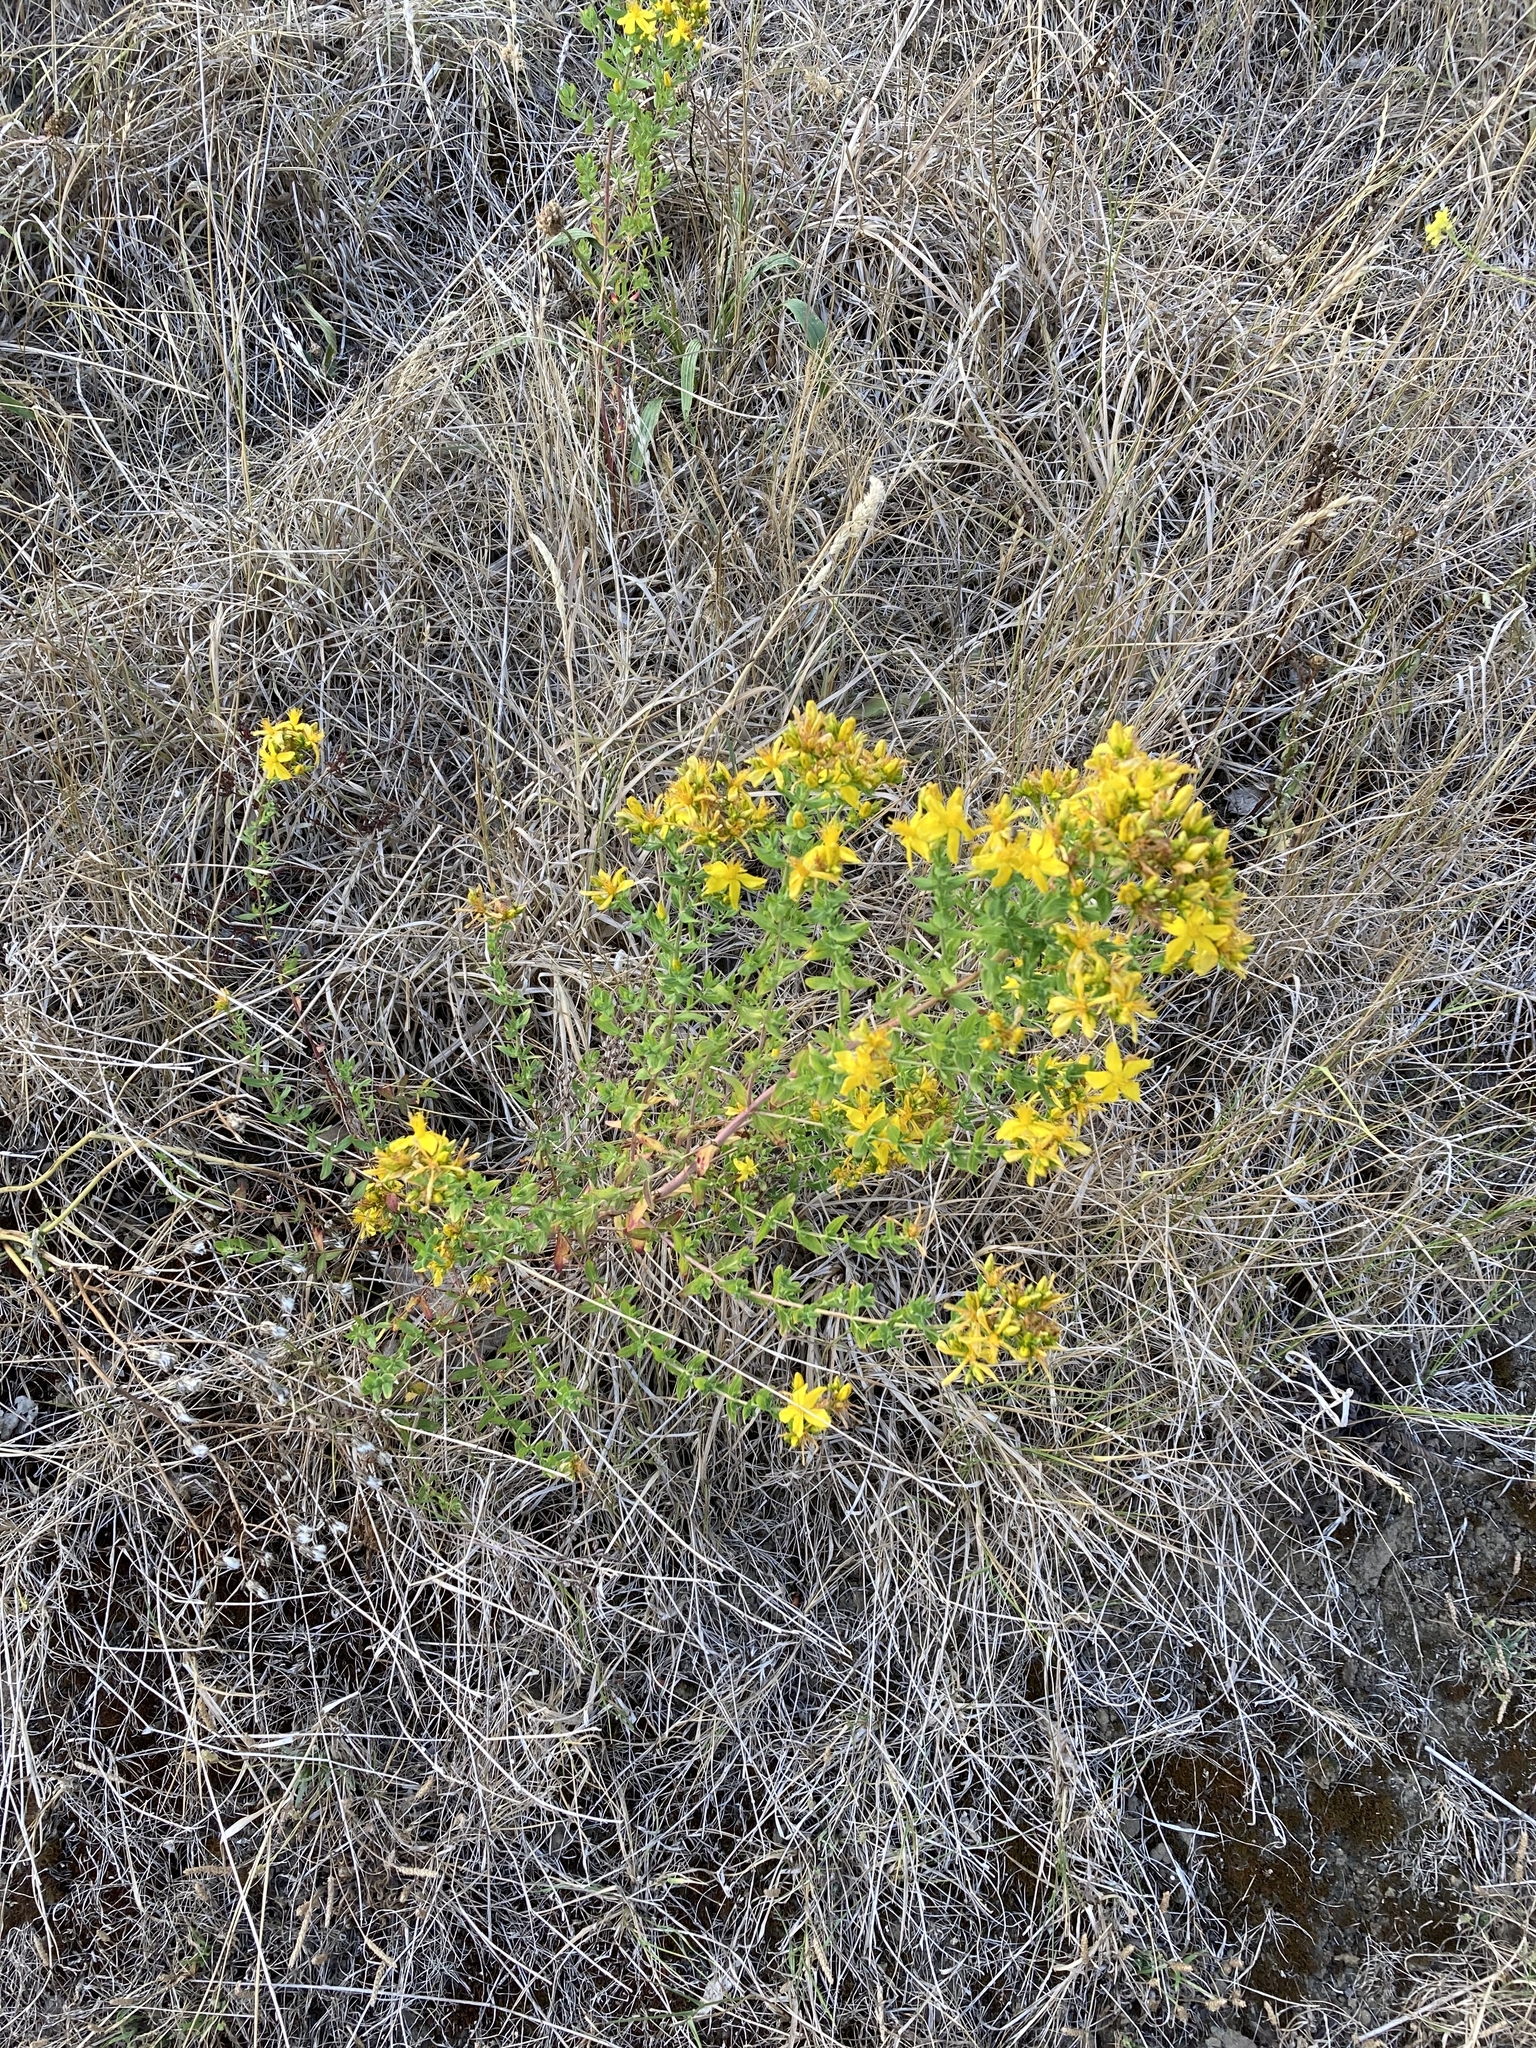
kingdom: Plantae
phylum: Tracheophyta
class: Magnoliopsida
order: Malpighiales
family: Hypericaceae
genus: Hypericum
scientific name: Hypericum perforatum
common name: Common st. johnswort
